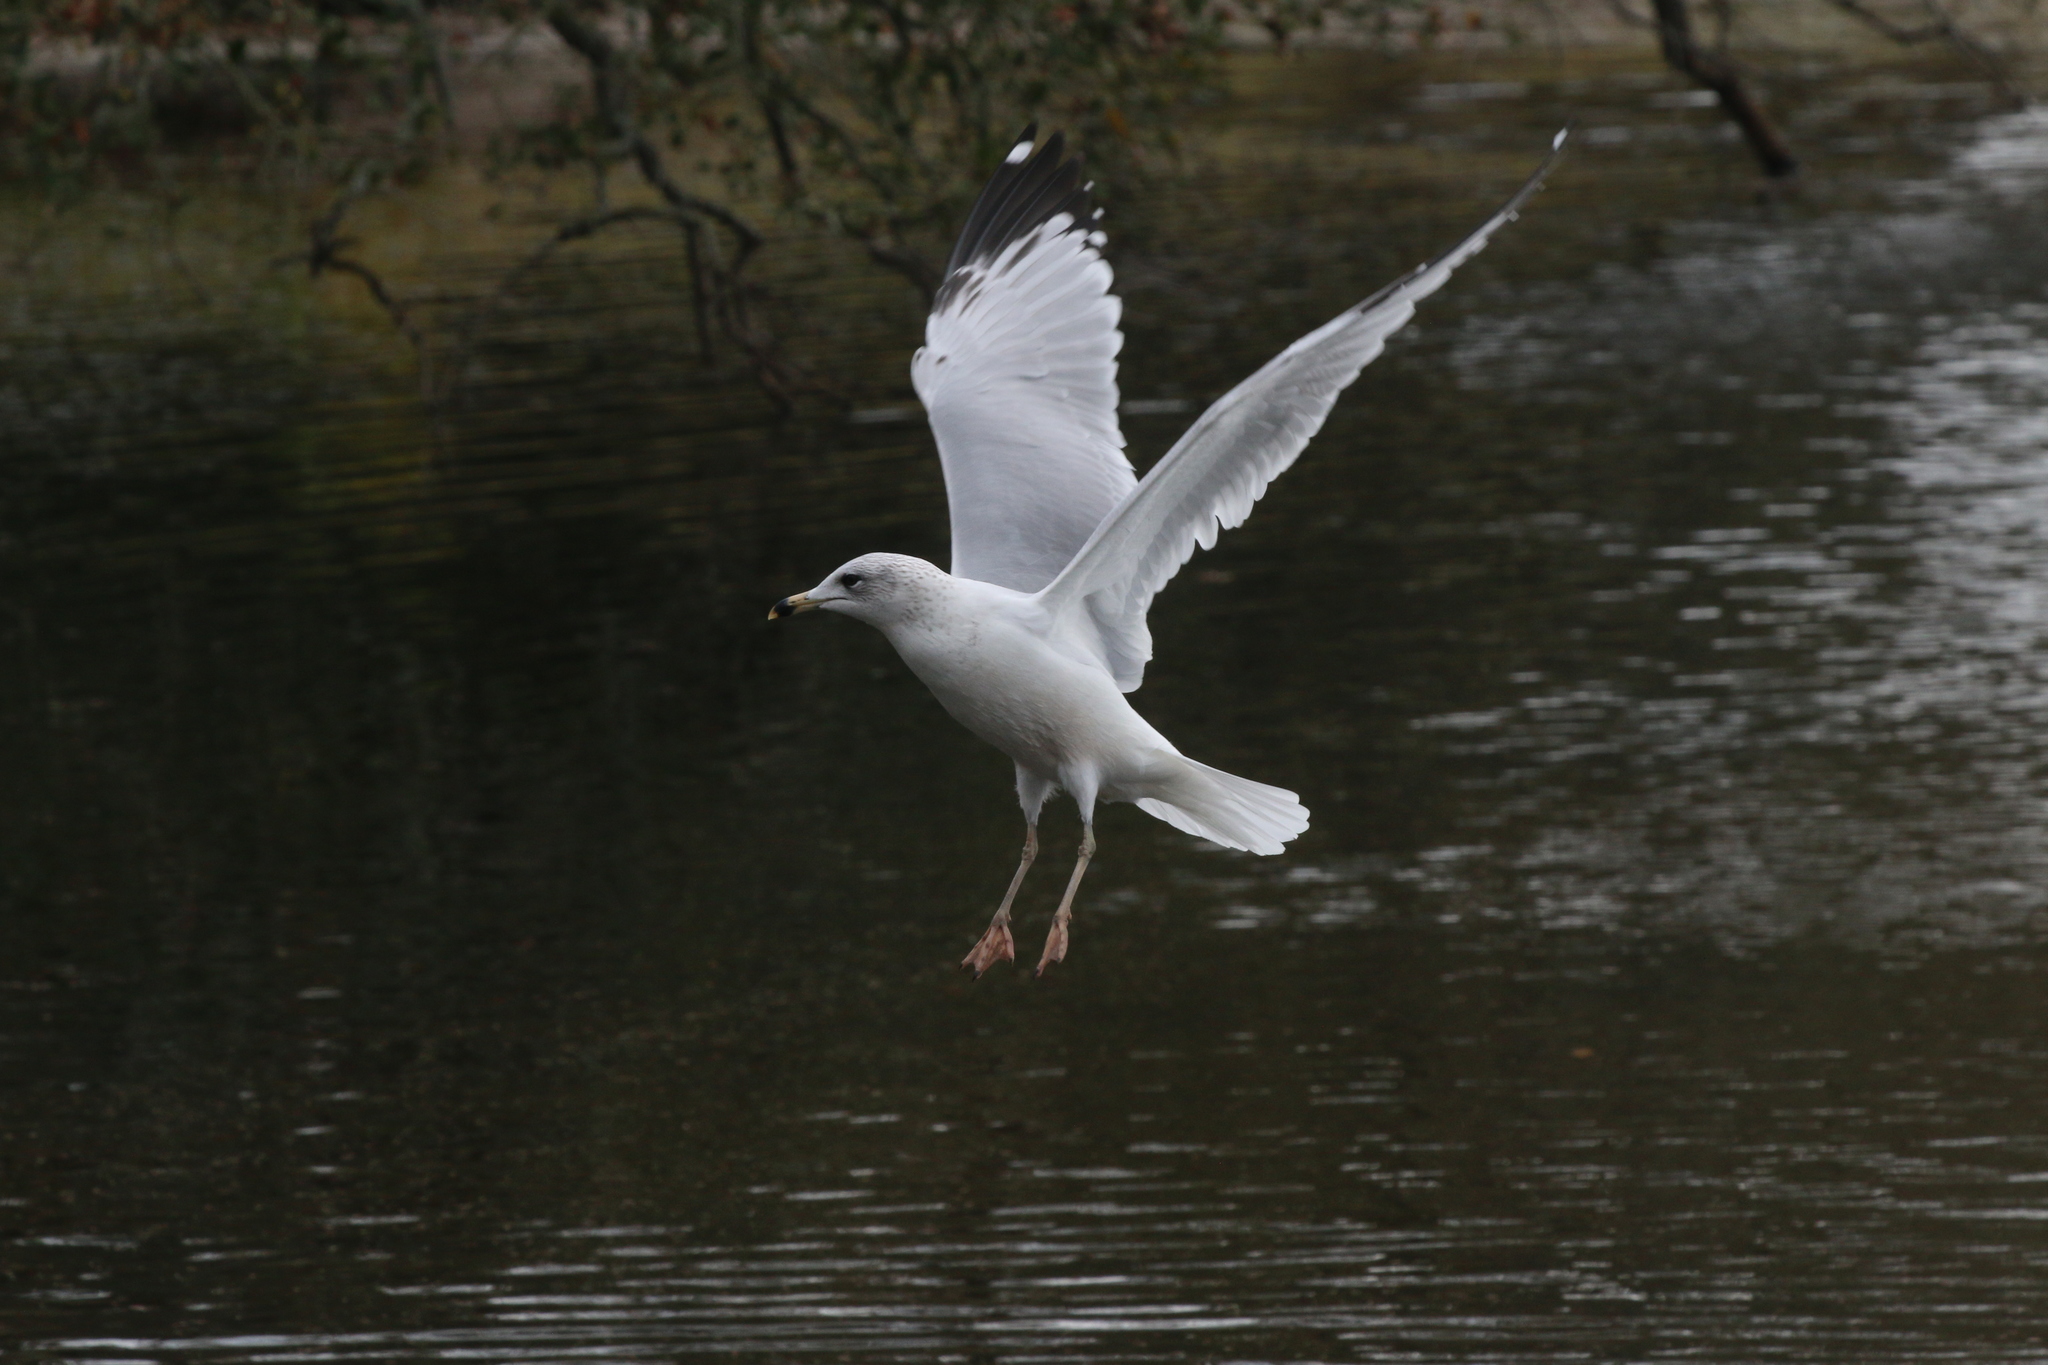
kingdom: Animalia
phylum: Chordata
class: Aves
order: Charadriiformes
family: Laridae
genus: Larus
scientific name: Larus delawarensis
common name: Ring-billed gull
